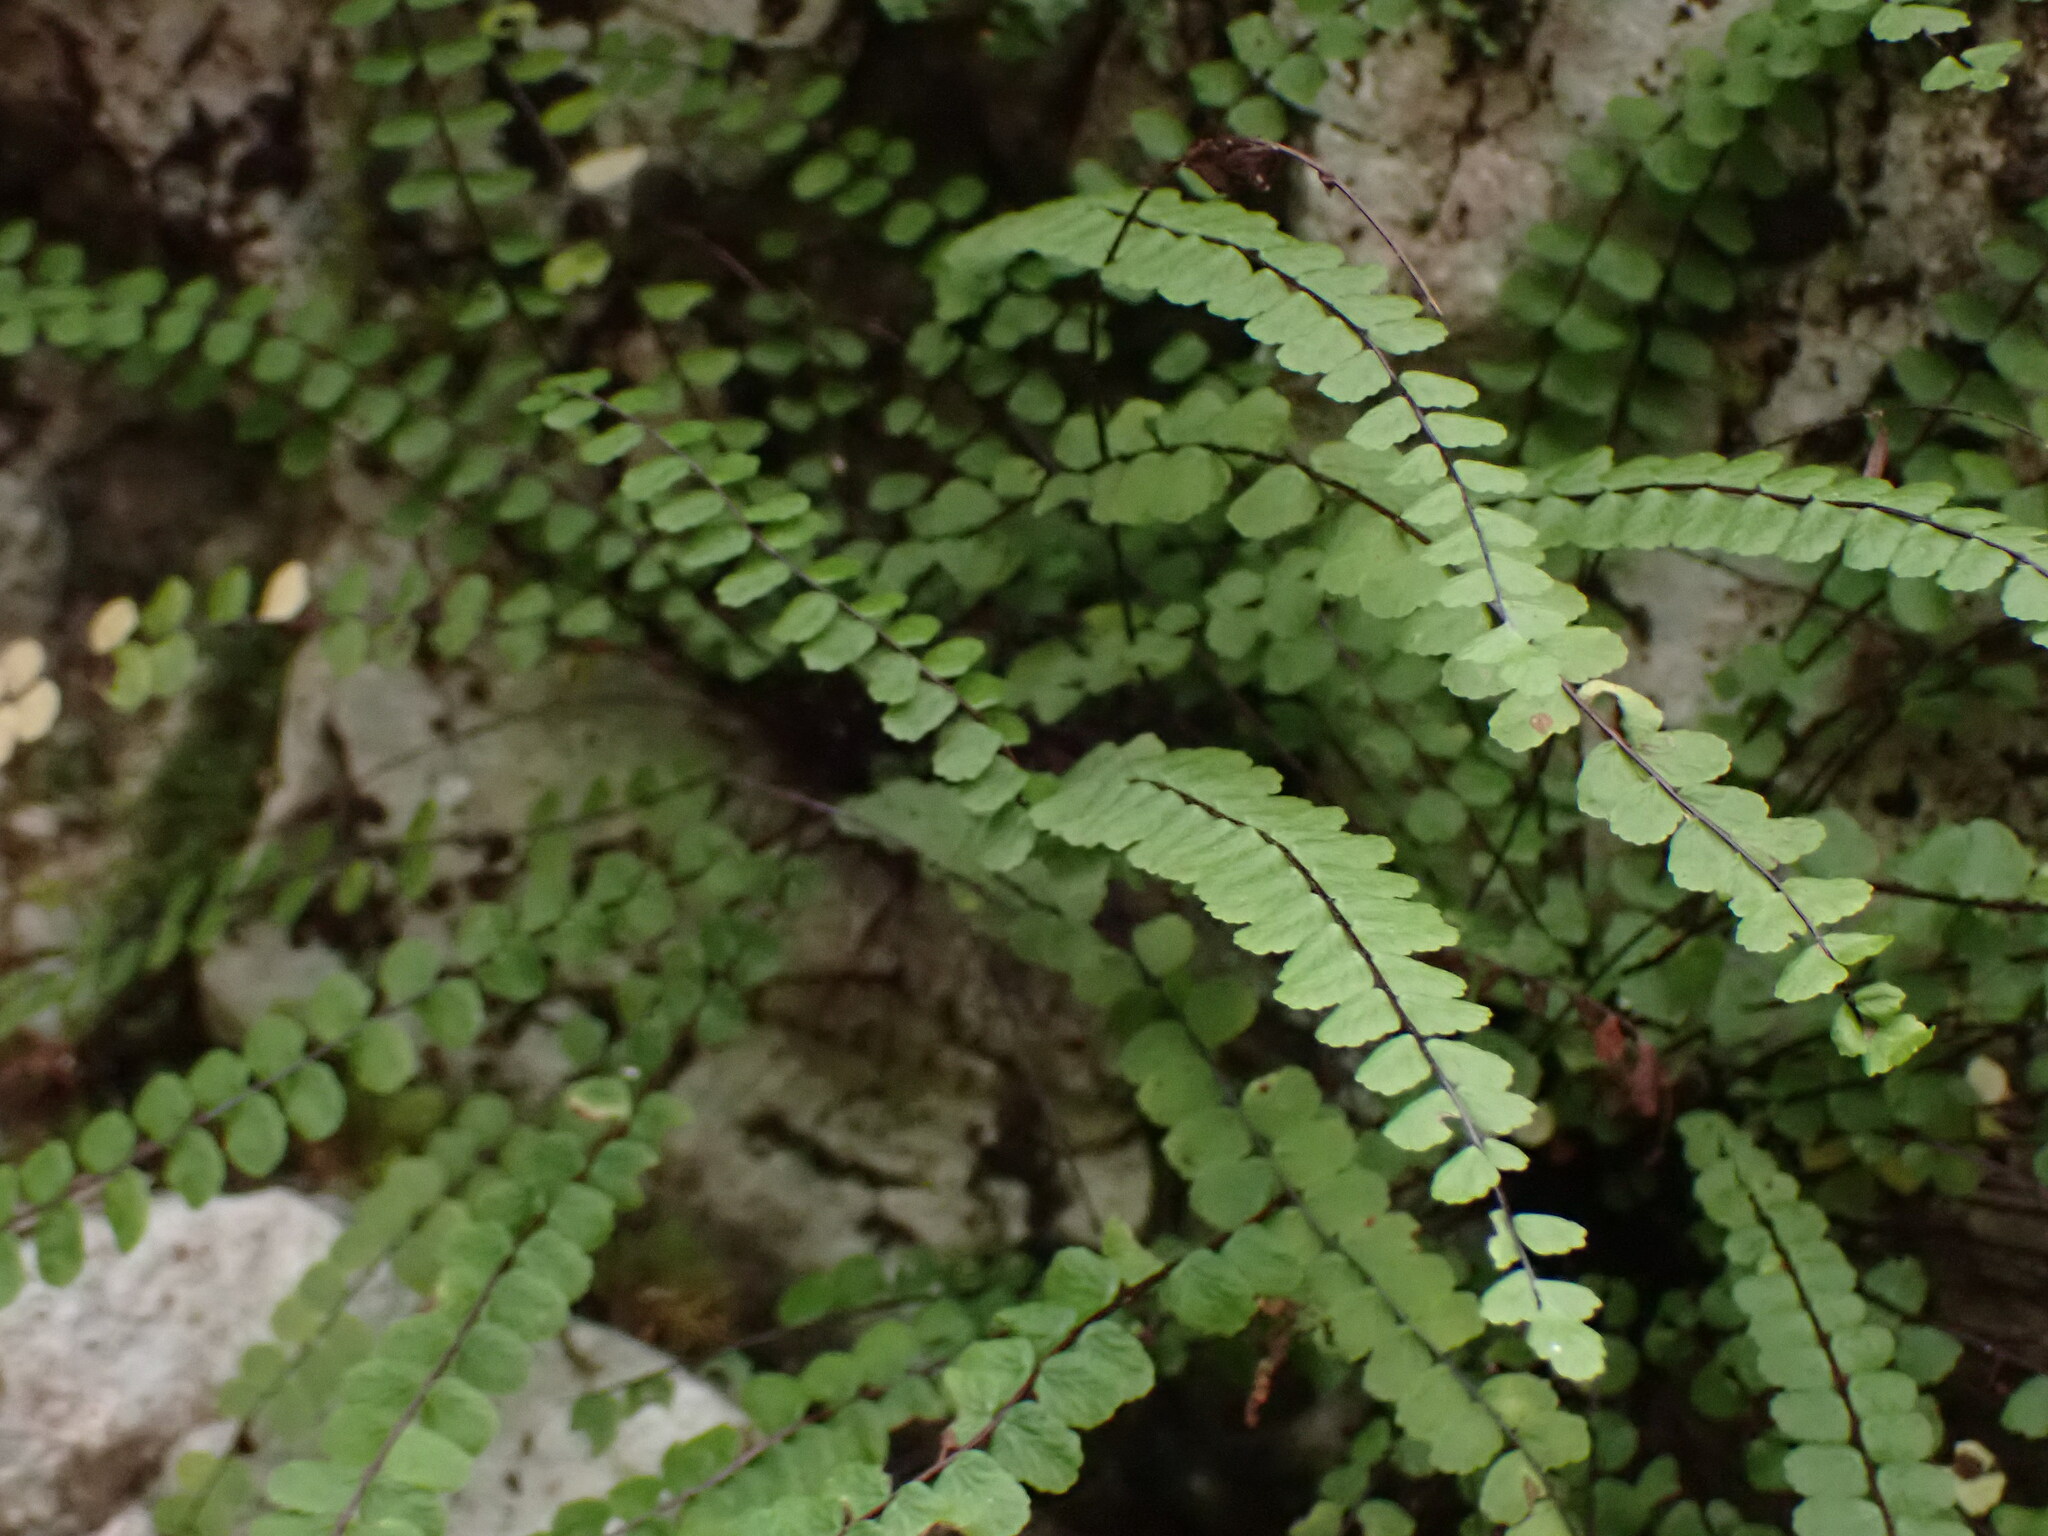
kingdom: Plantae
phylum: Tracheophyta
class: Polypodiopsida
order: Polypodiales
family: Aspleniaceae
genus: Asplenium
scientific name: Asplenium trichomanes
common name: Maidenhair spleenwort
